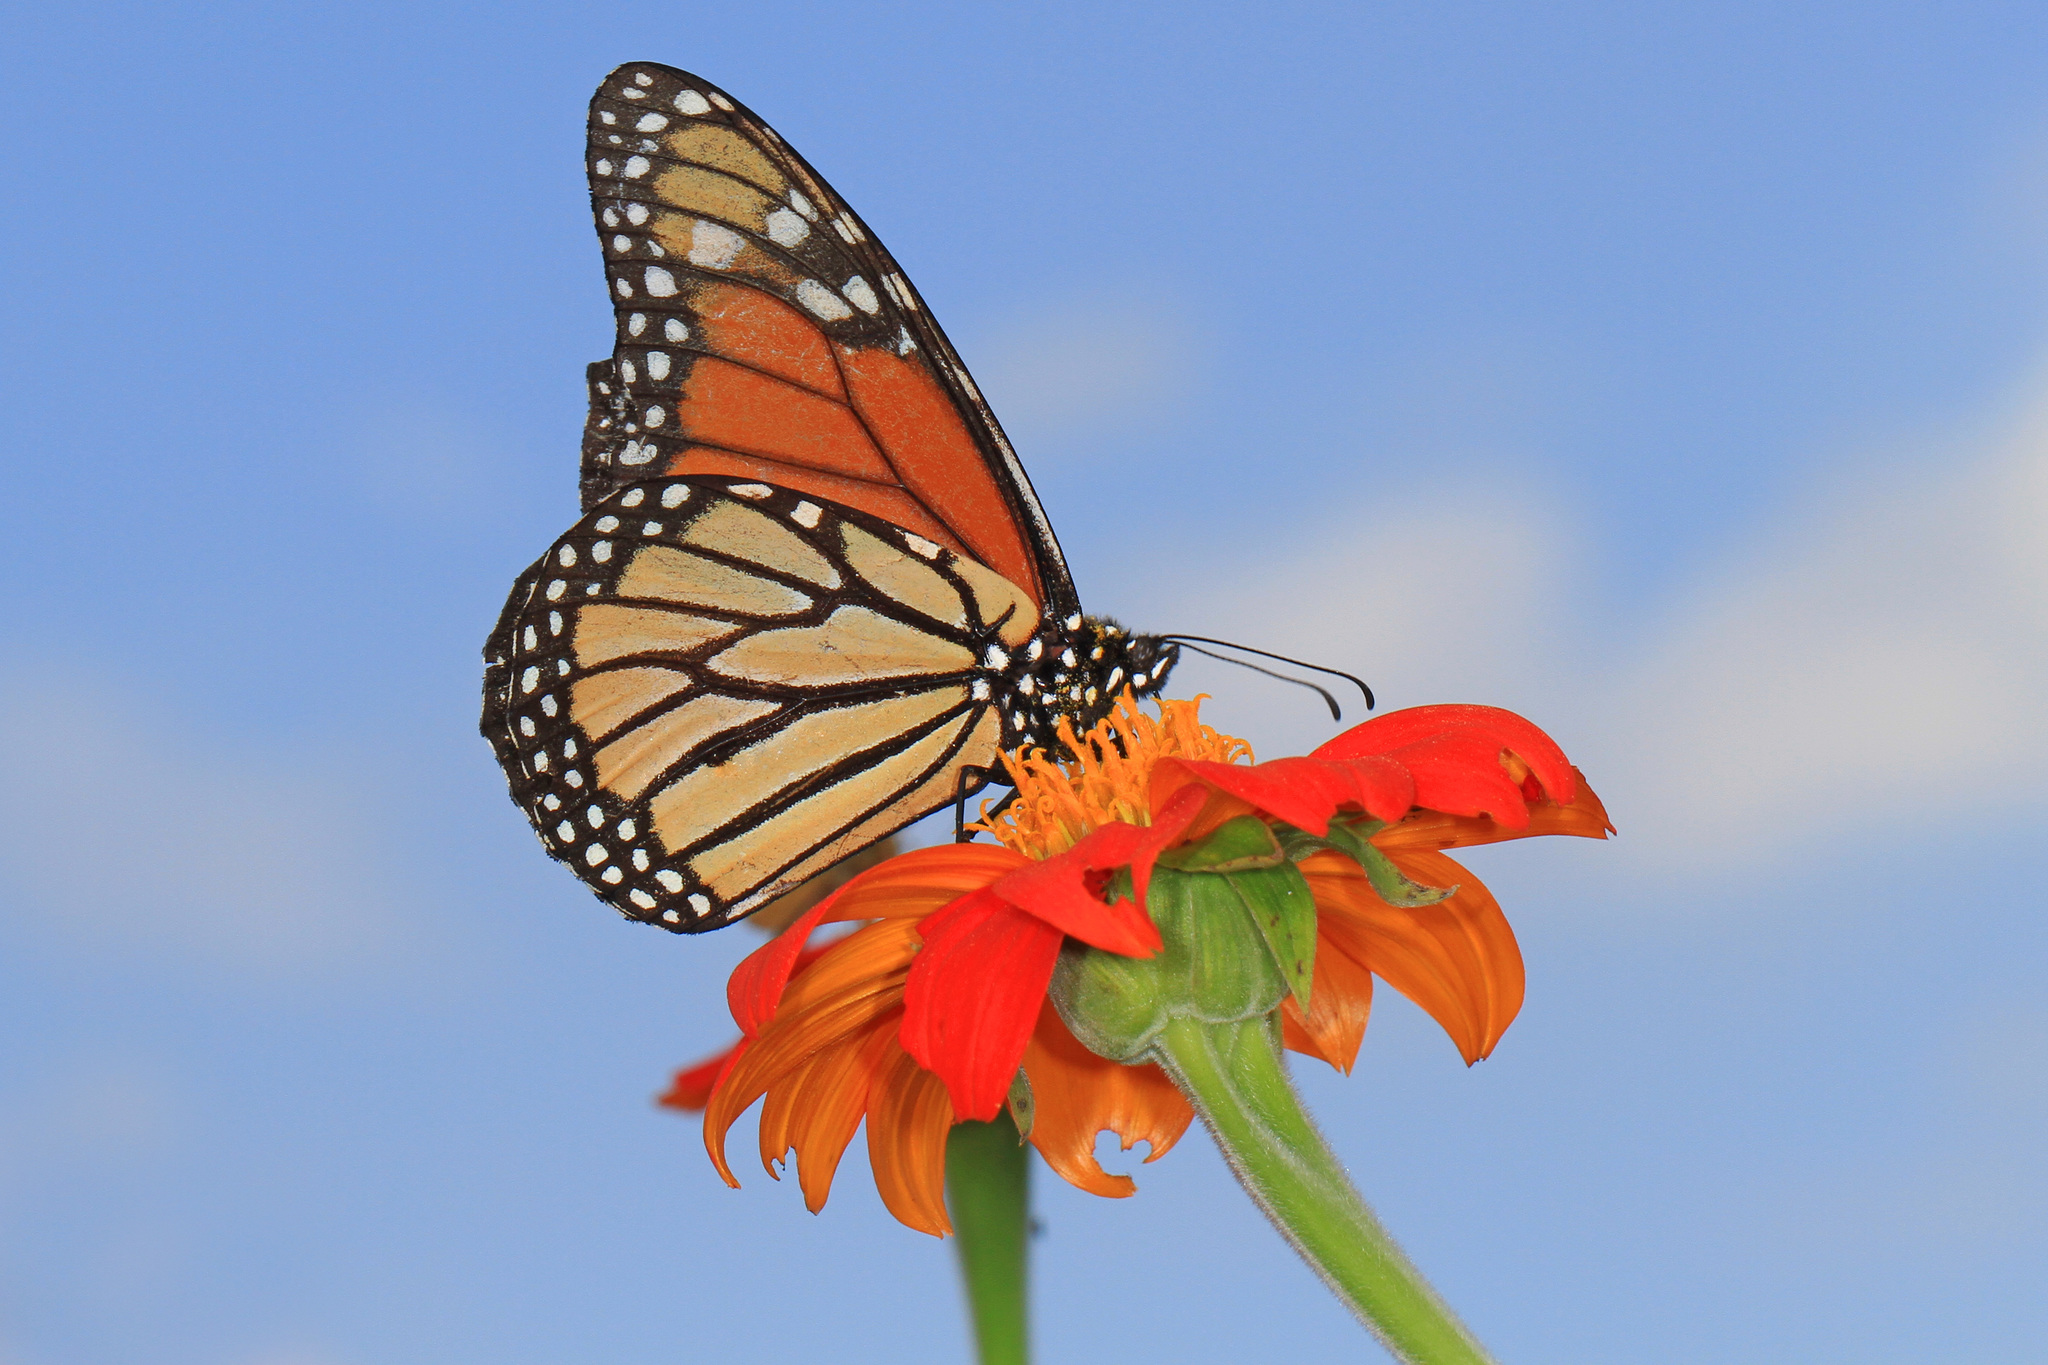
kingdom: Animalia
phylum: Arthropoda
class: Insecta
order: Lepidoptera
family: Nymphalidae
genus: Danaus
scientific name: Danaus plexippus
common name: Monarch
